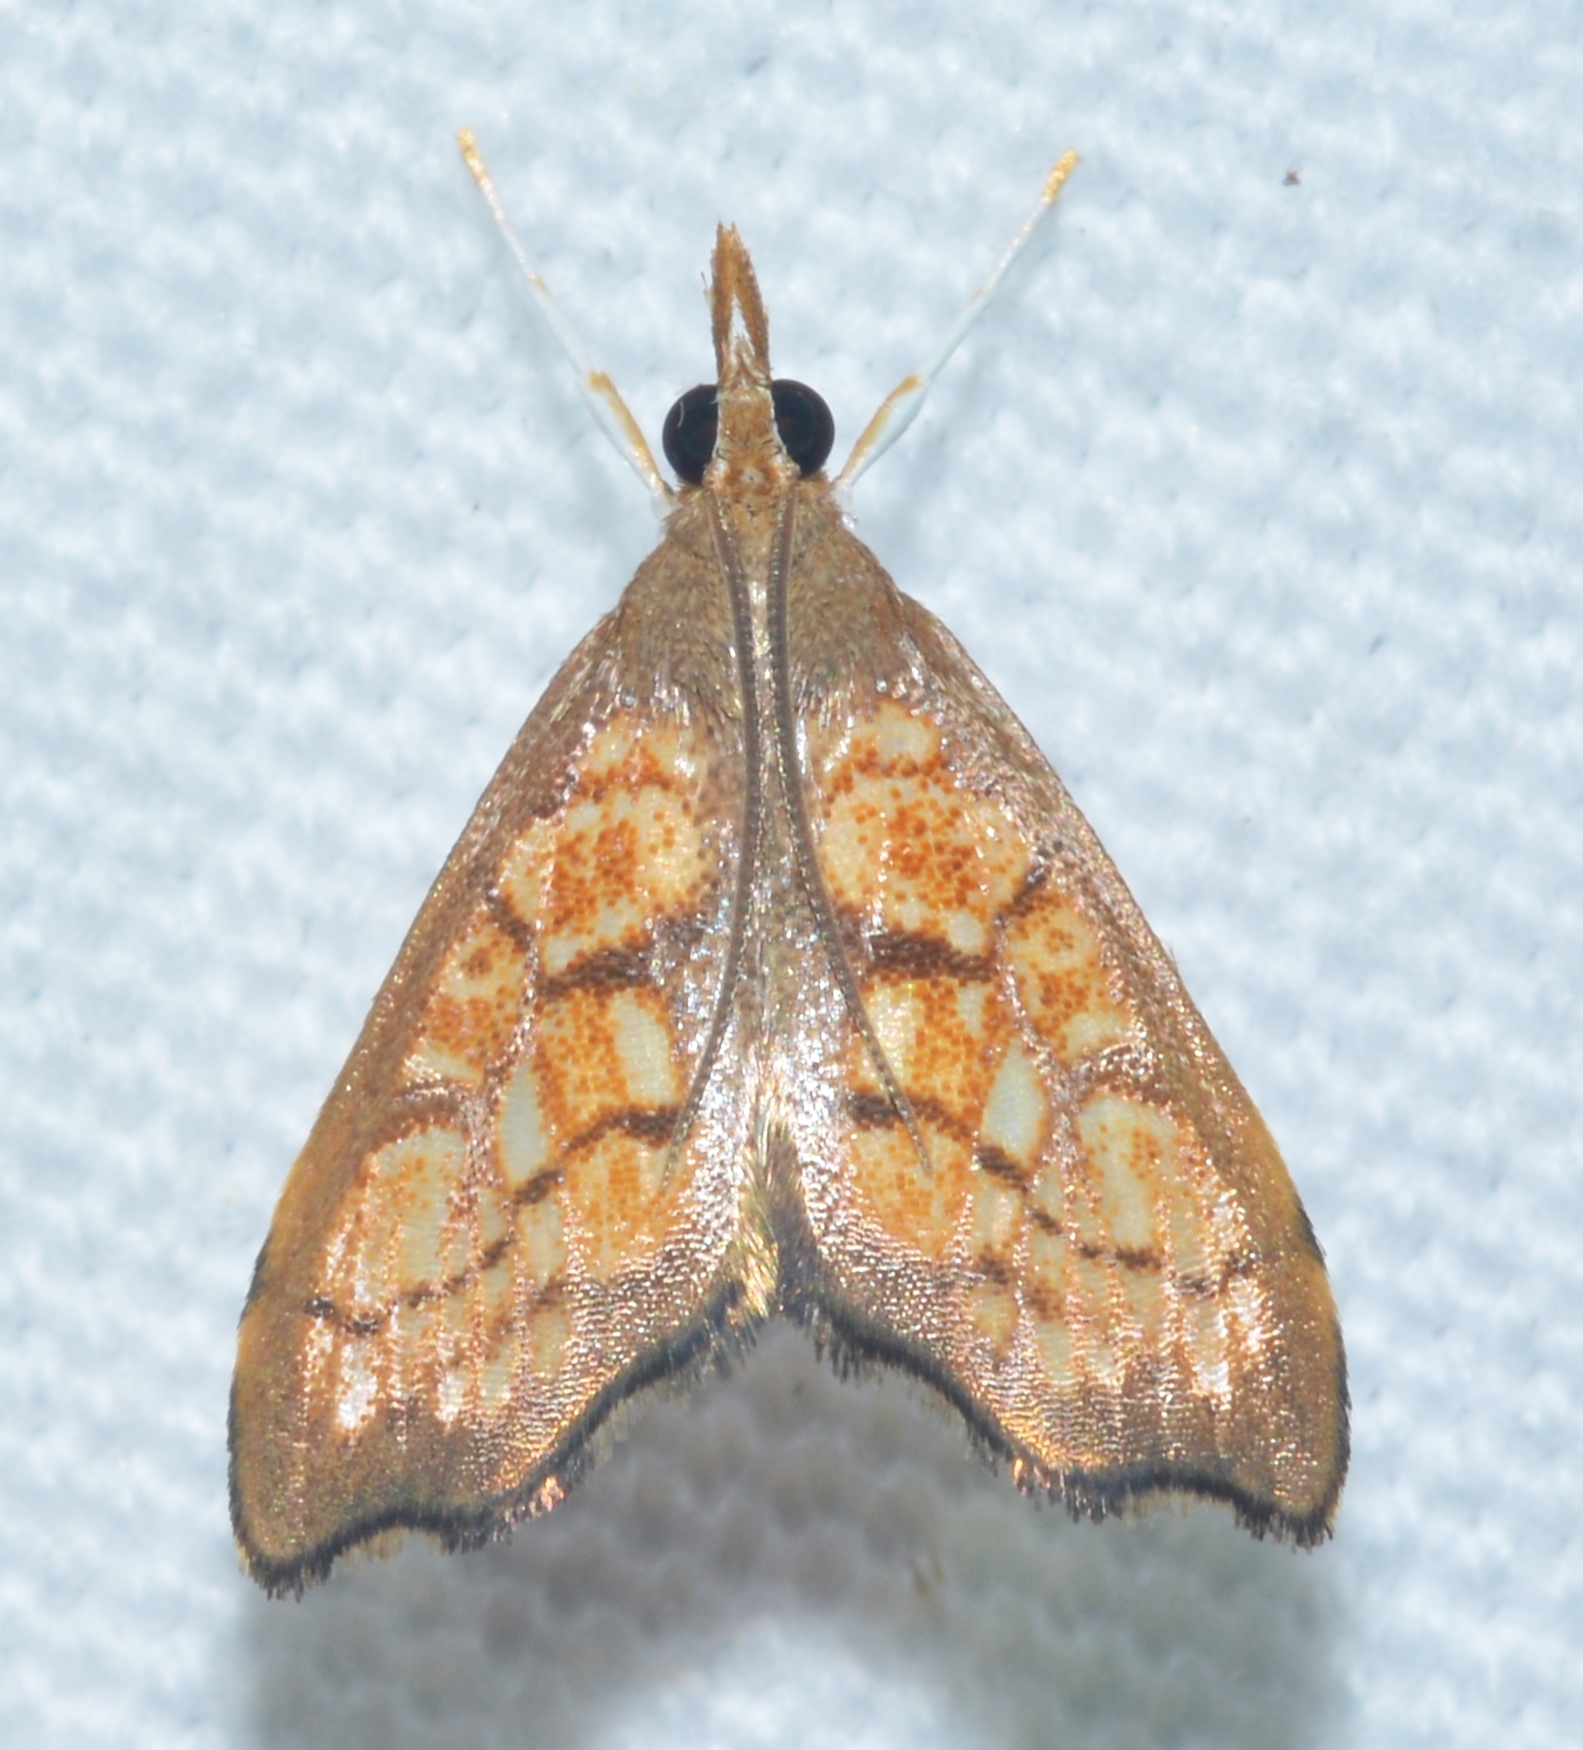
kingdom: Animalia
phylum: Arthropoda
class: Insecta
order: Lepidoptera
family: Crambidae
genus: Hydropionea
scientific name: Hydropionea fenestralis
